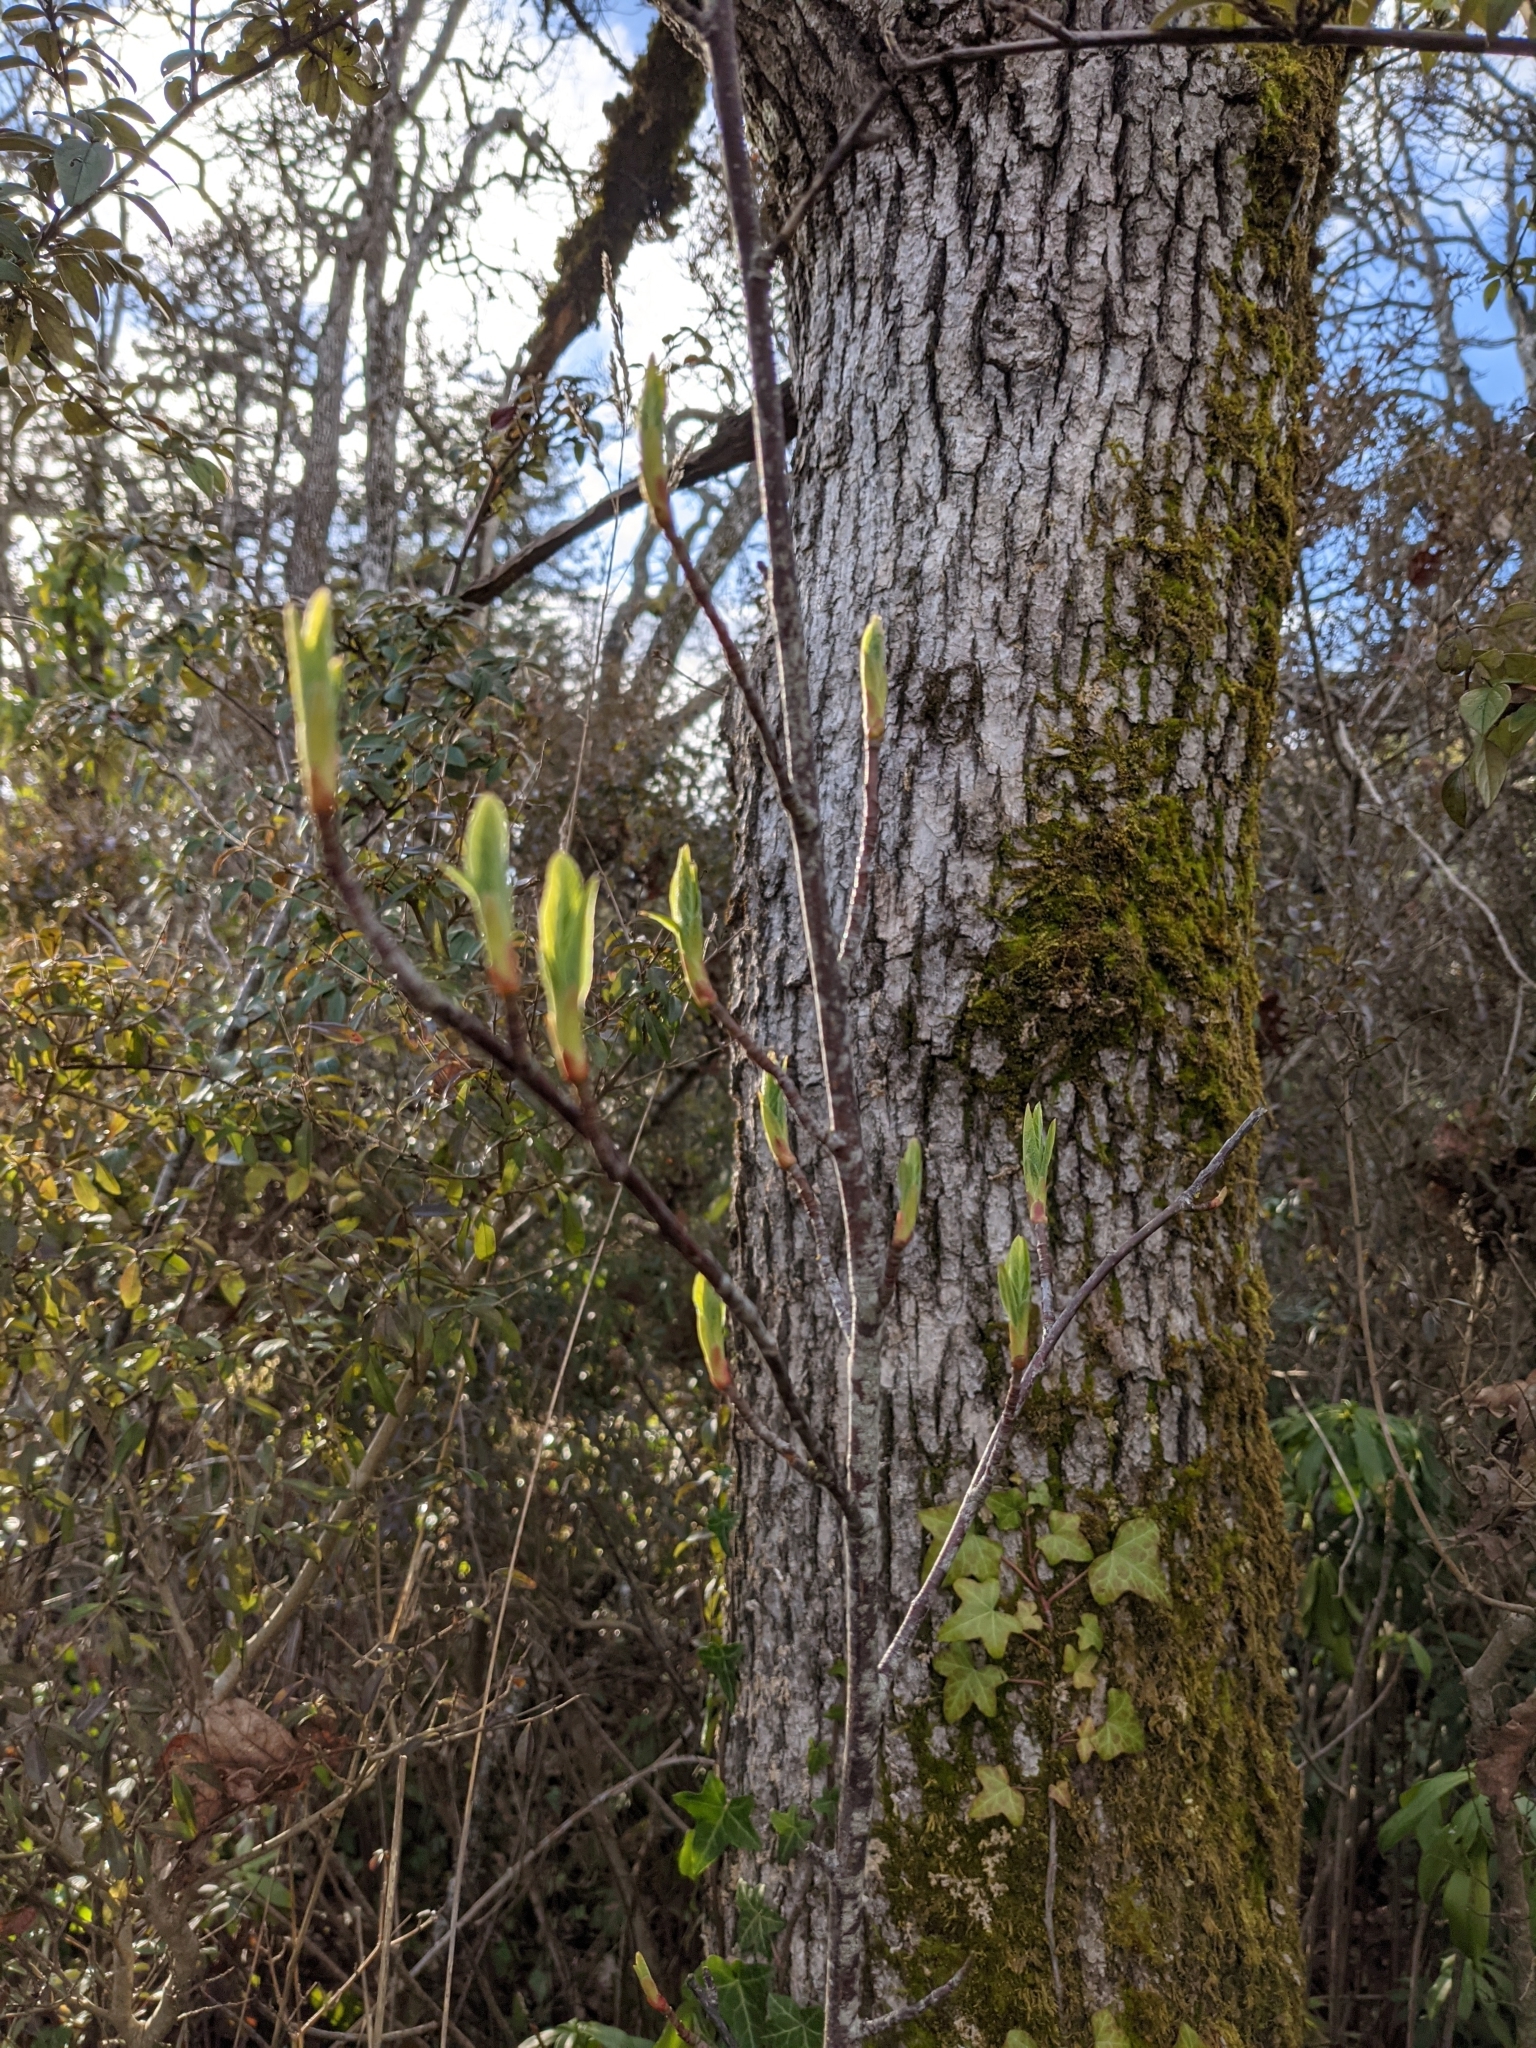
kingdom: Plantae
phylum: Tracheophyta
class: Magnoliopsida
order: Rosales
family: Rosaceae
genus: Oemleria
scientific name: Oemleria cerasiformis
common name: Osoberry
